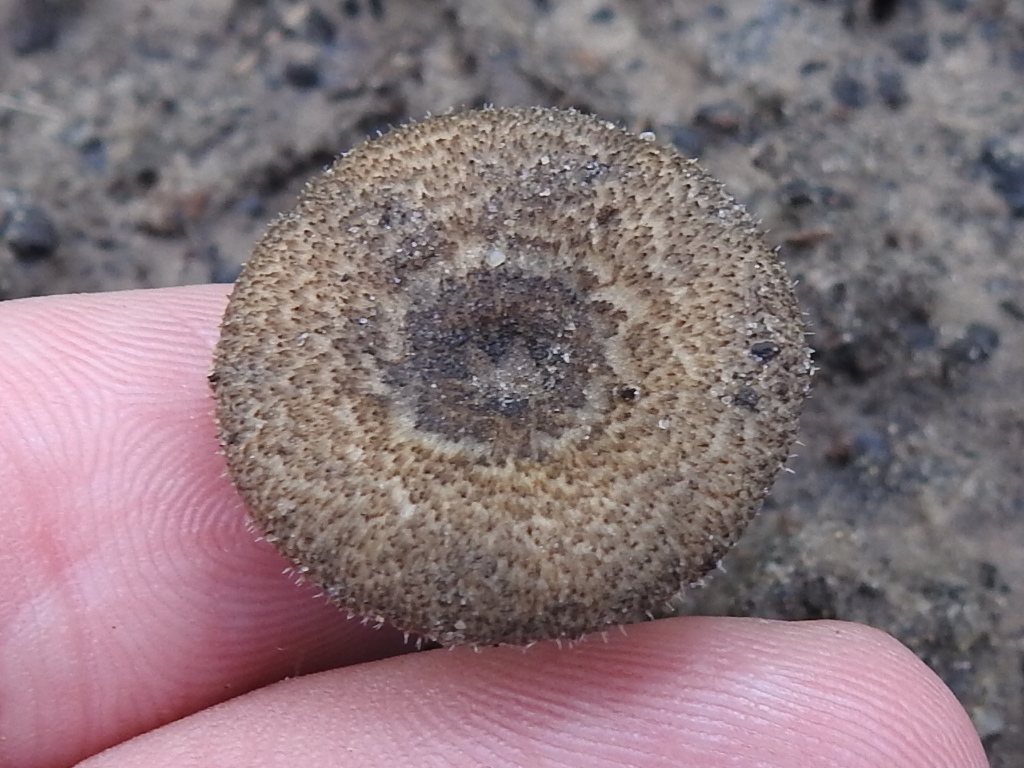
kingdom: Fungi
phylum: Basidiomycota
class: Agaricomycetes
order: Polyporales
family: Polyporaceae
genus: Lentinus
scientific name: Lentinus arcularius
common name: Spring polypore
